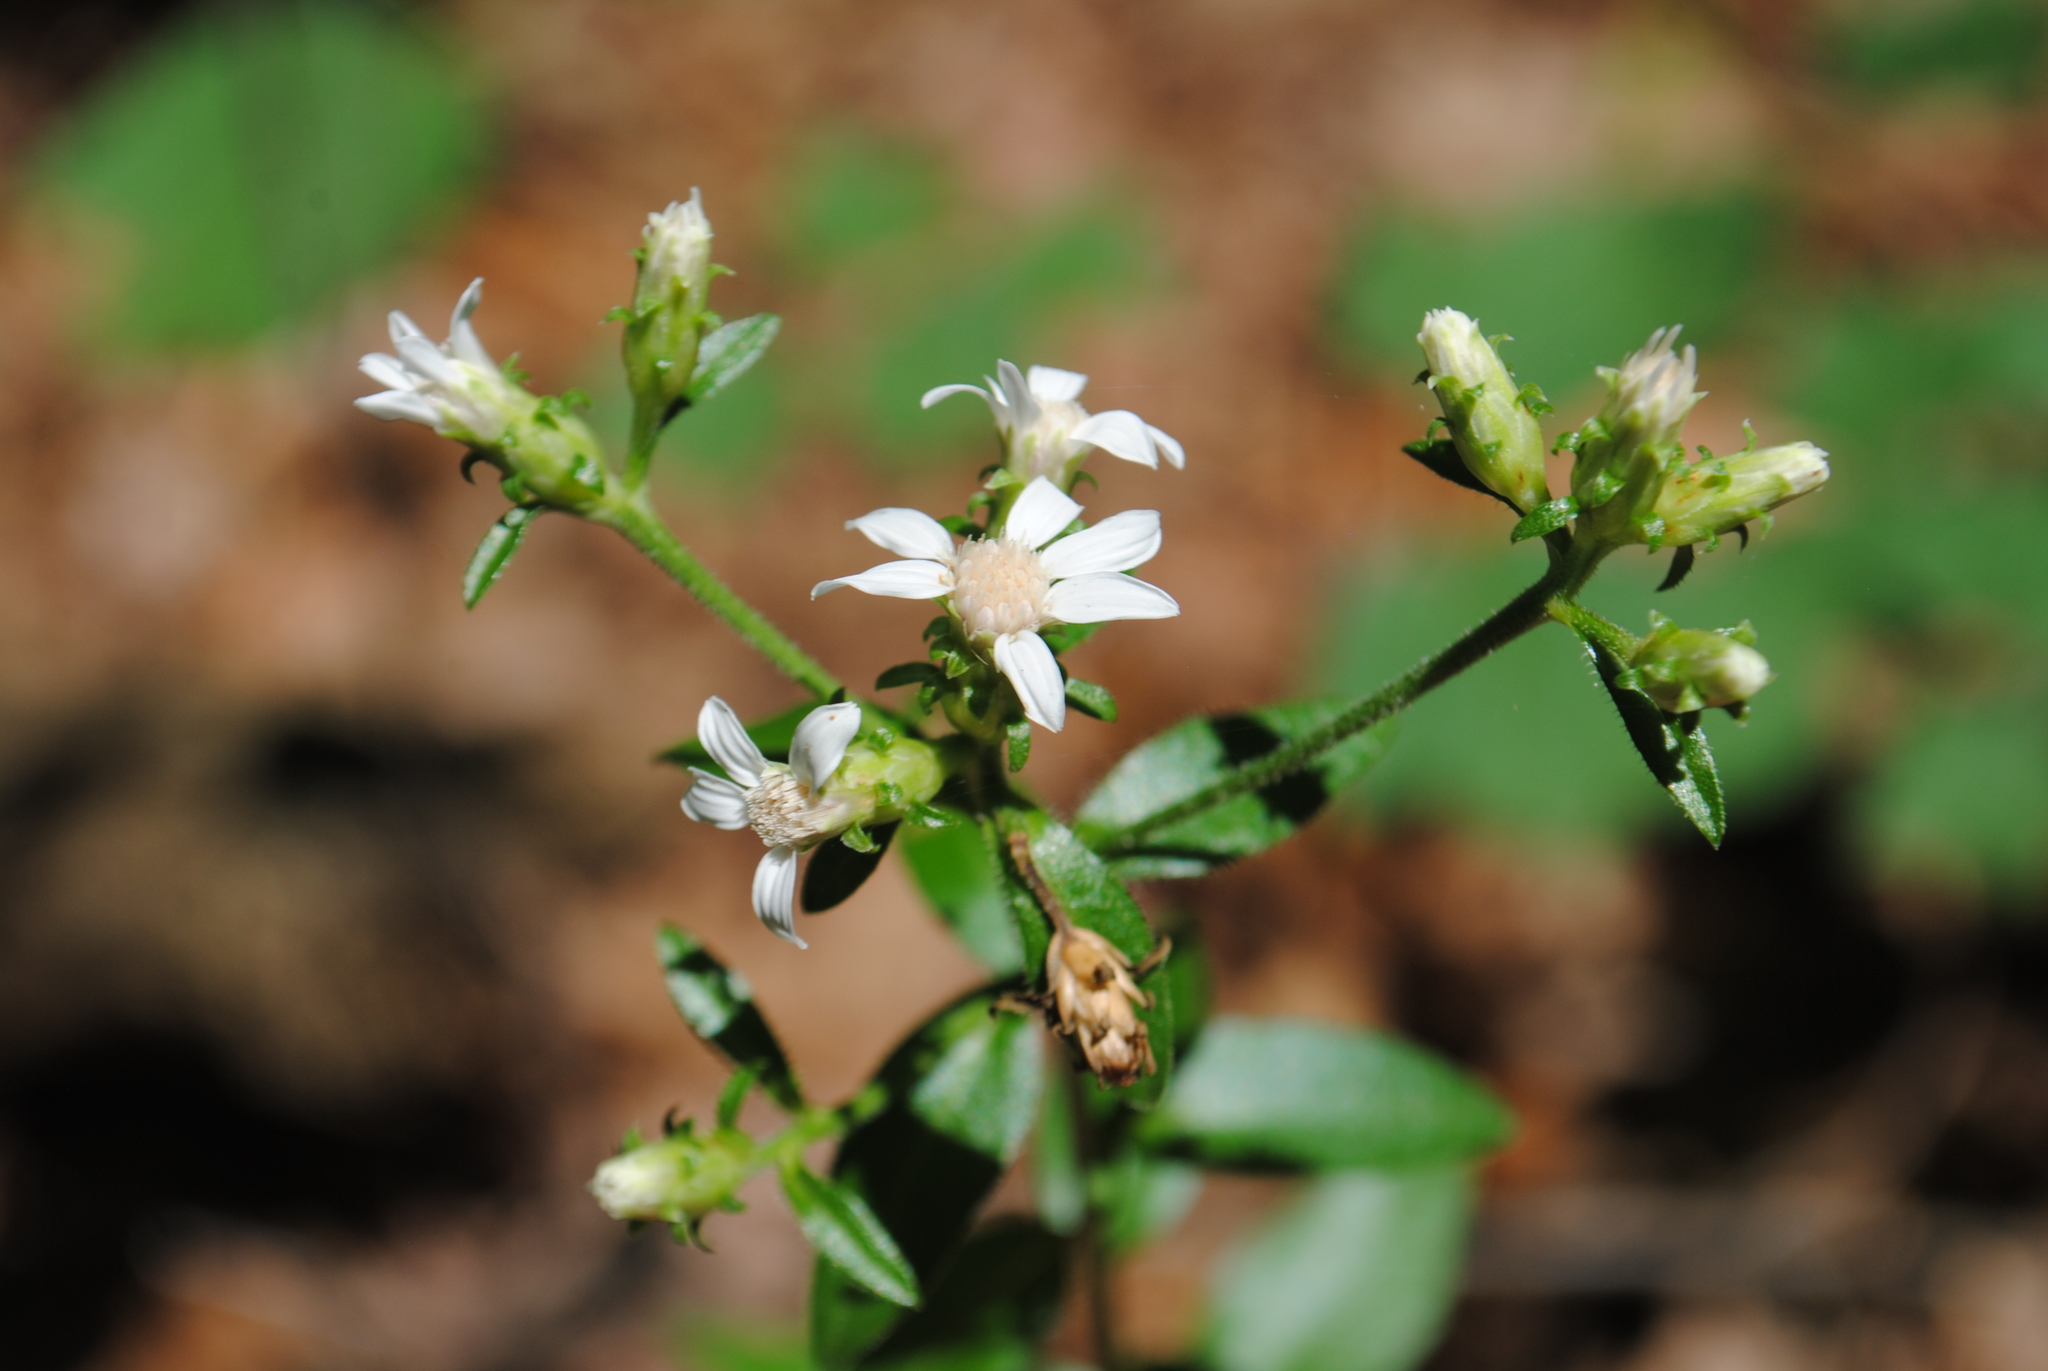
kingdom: Plantae
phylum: Tracheophyta
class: Magnoliopsida
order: Asterales
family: Asteraceae
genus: Sericocarpus
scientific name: Sericocarpus asteroides
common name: Toothed white-top aster
